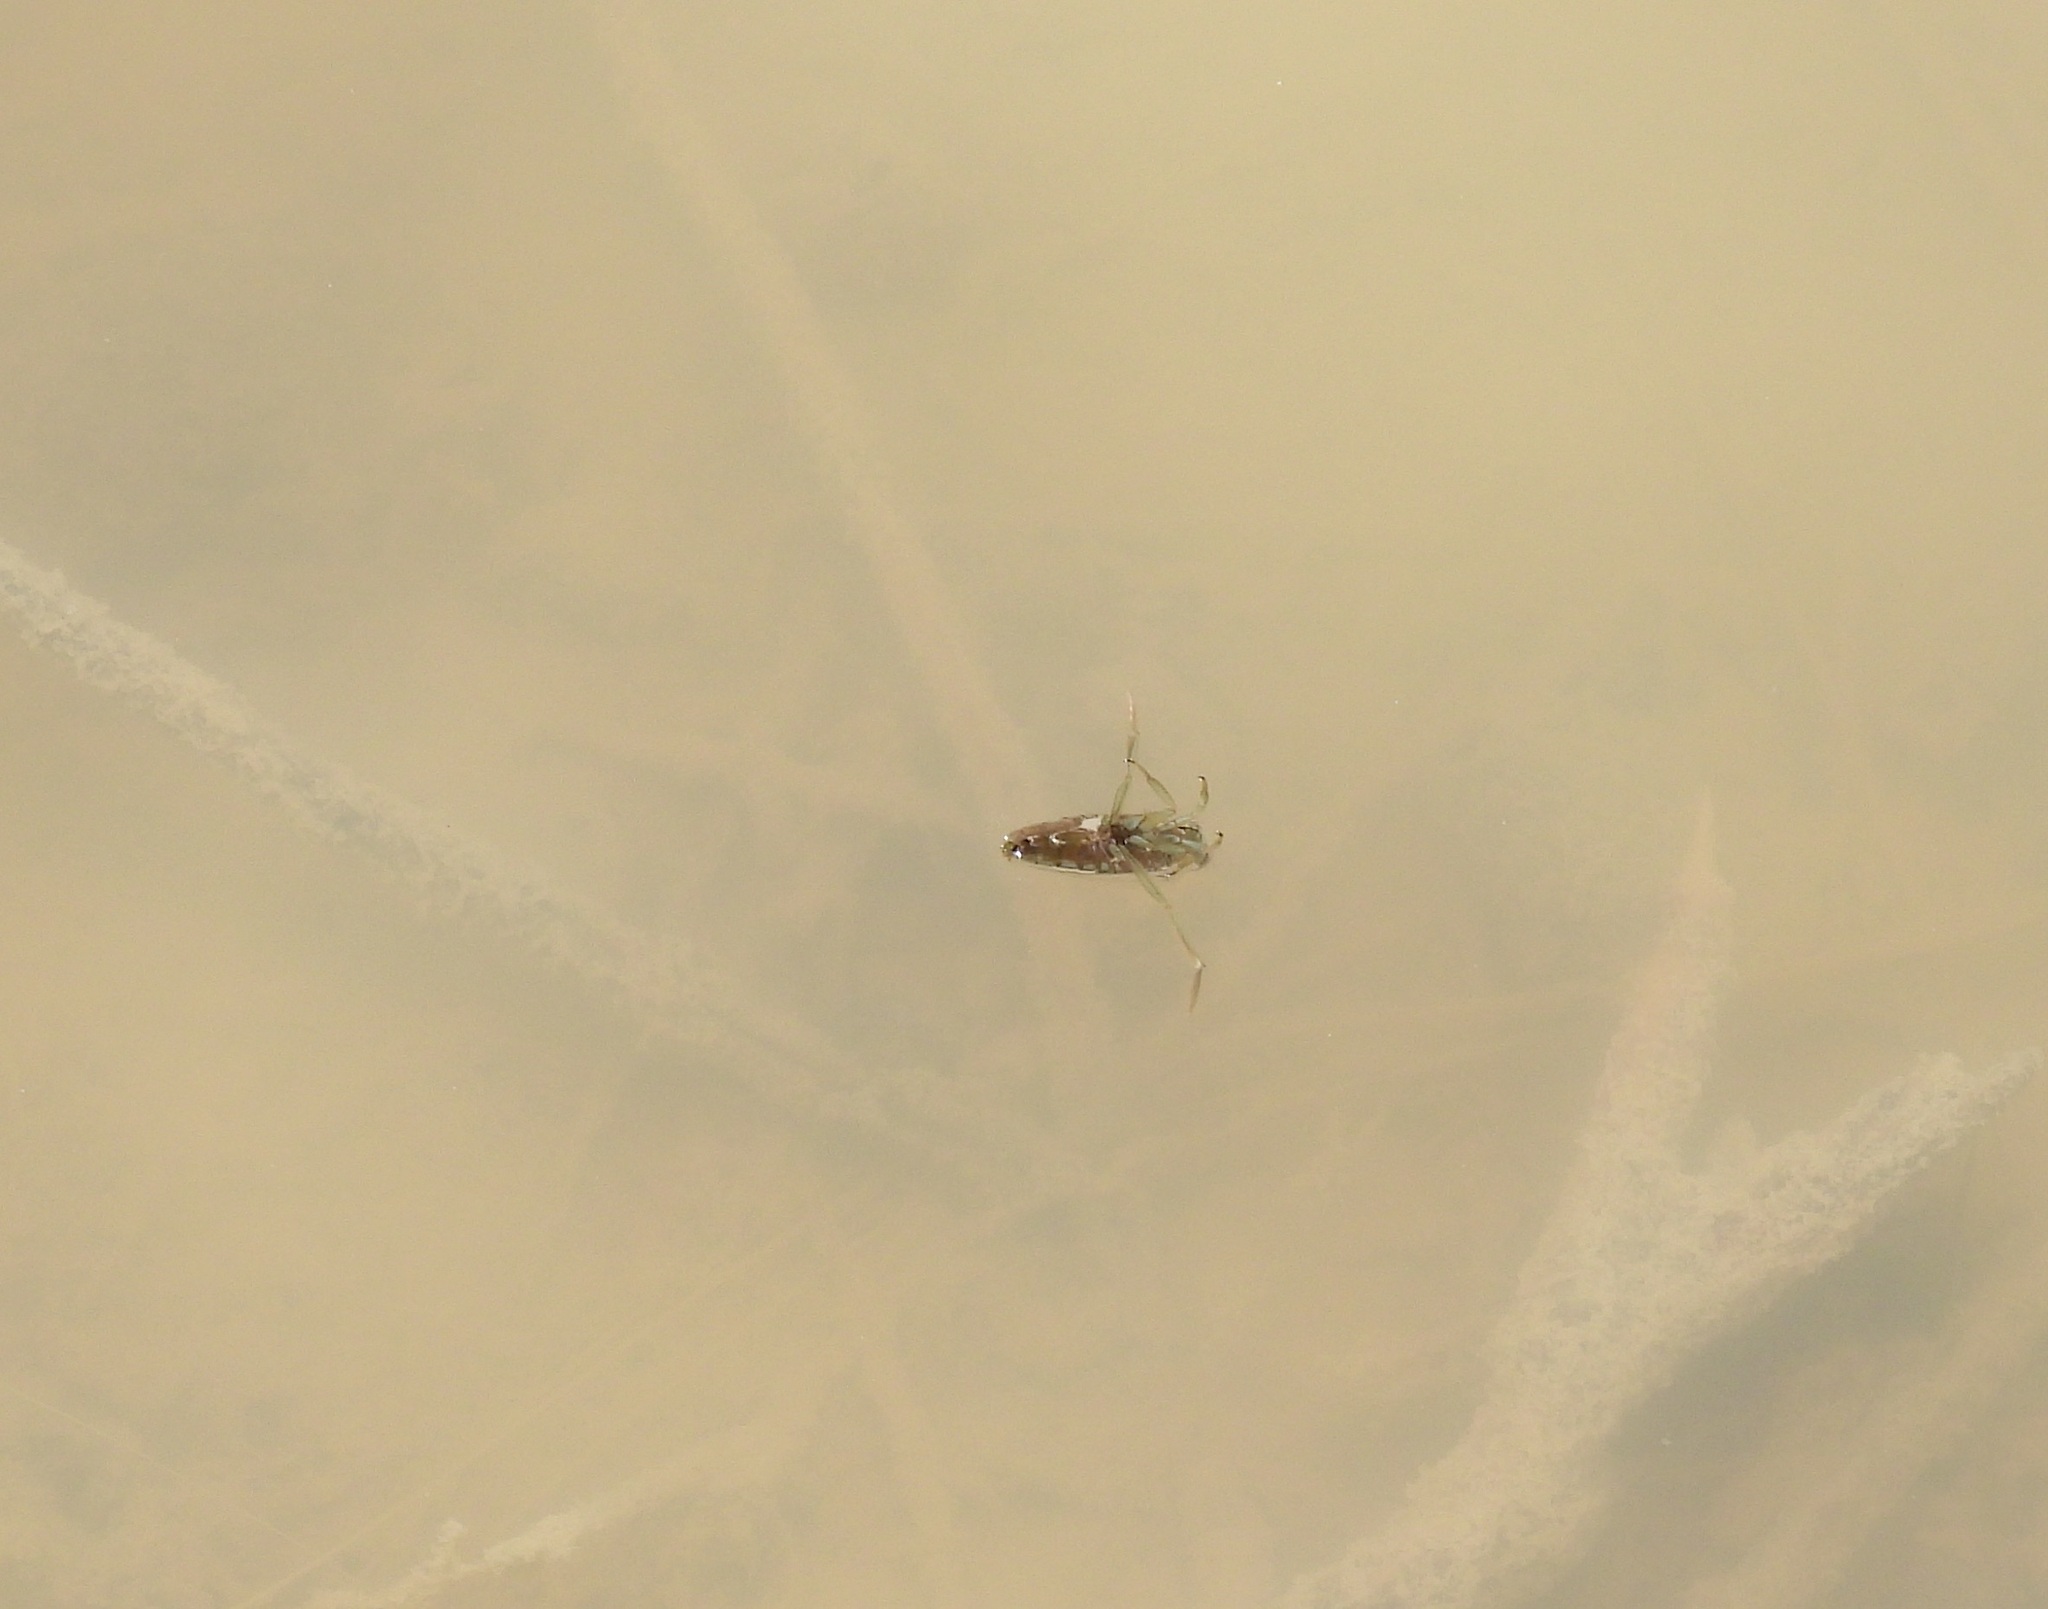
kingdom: Animalia
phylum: Arthropoda
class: Insecta
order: Hemiptera
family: Notonectidae
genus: Notonecta
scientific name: Notonecta
